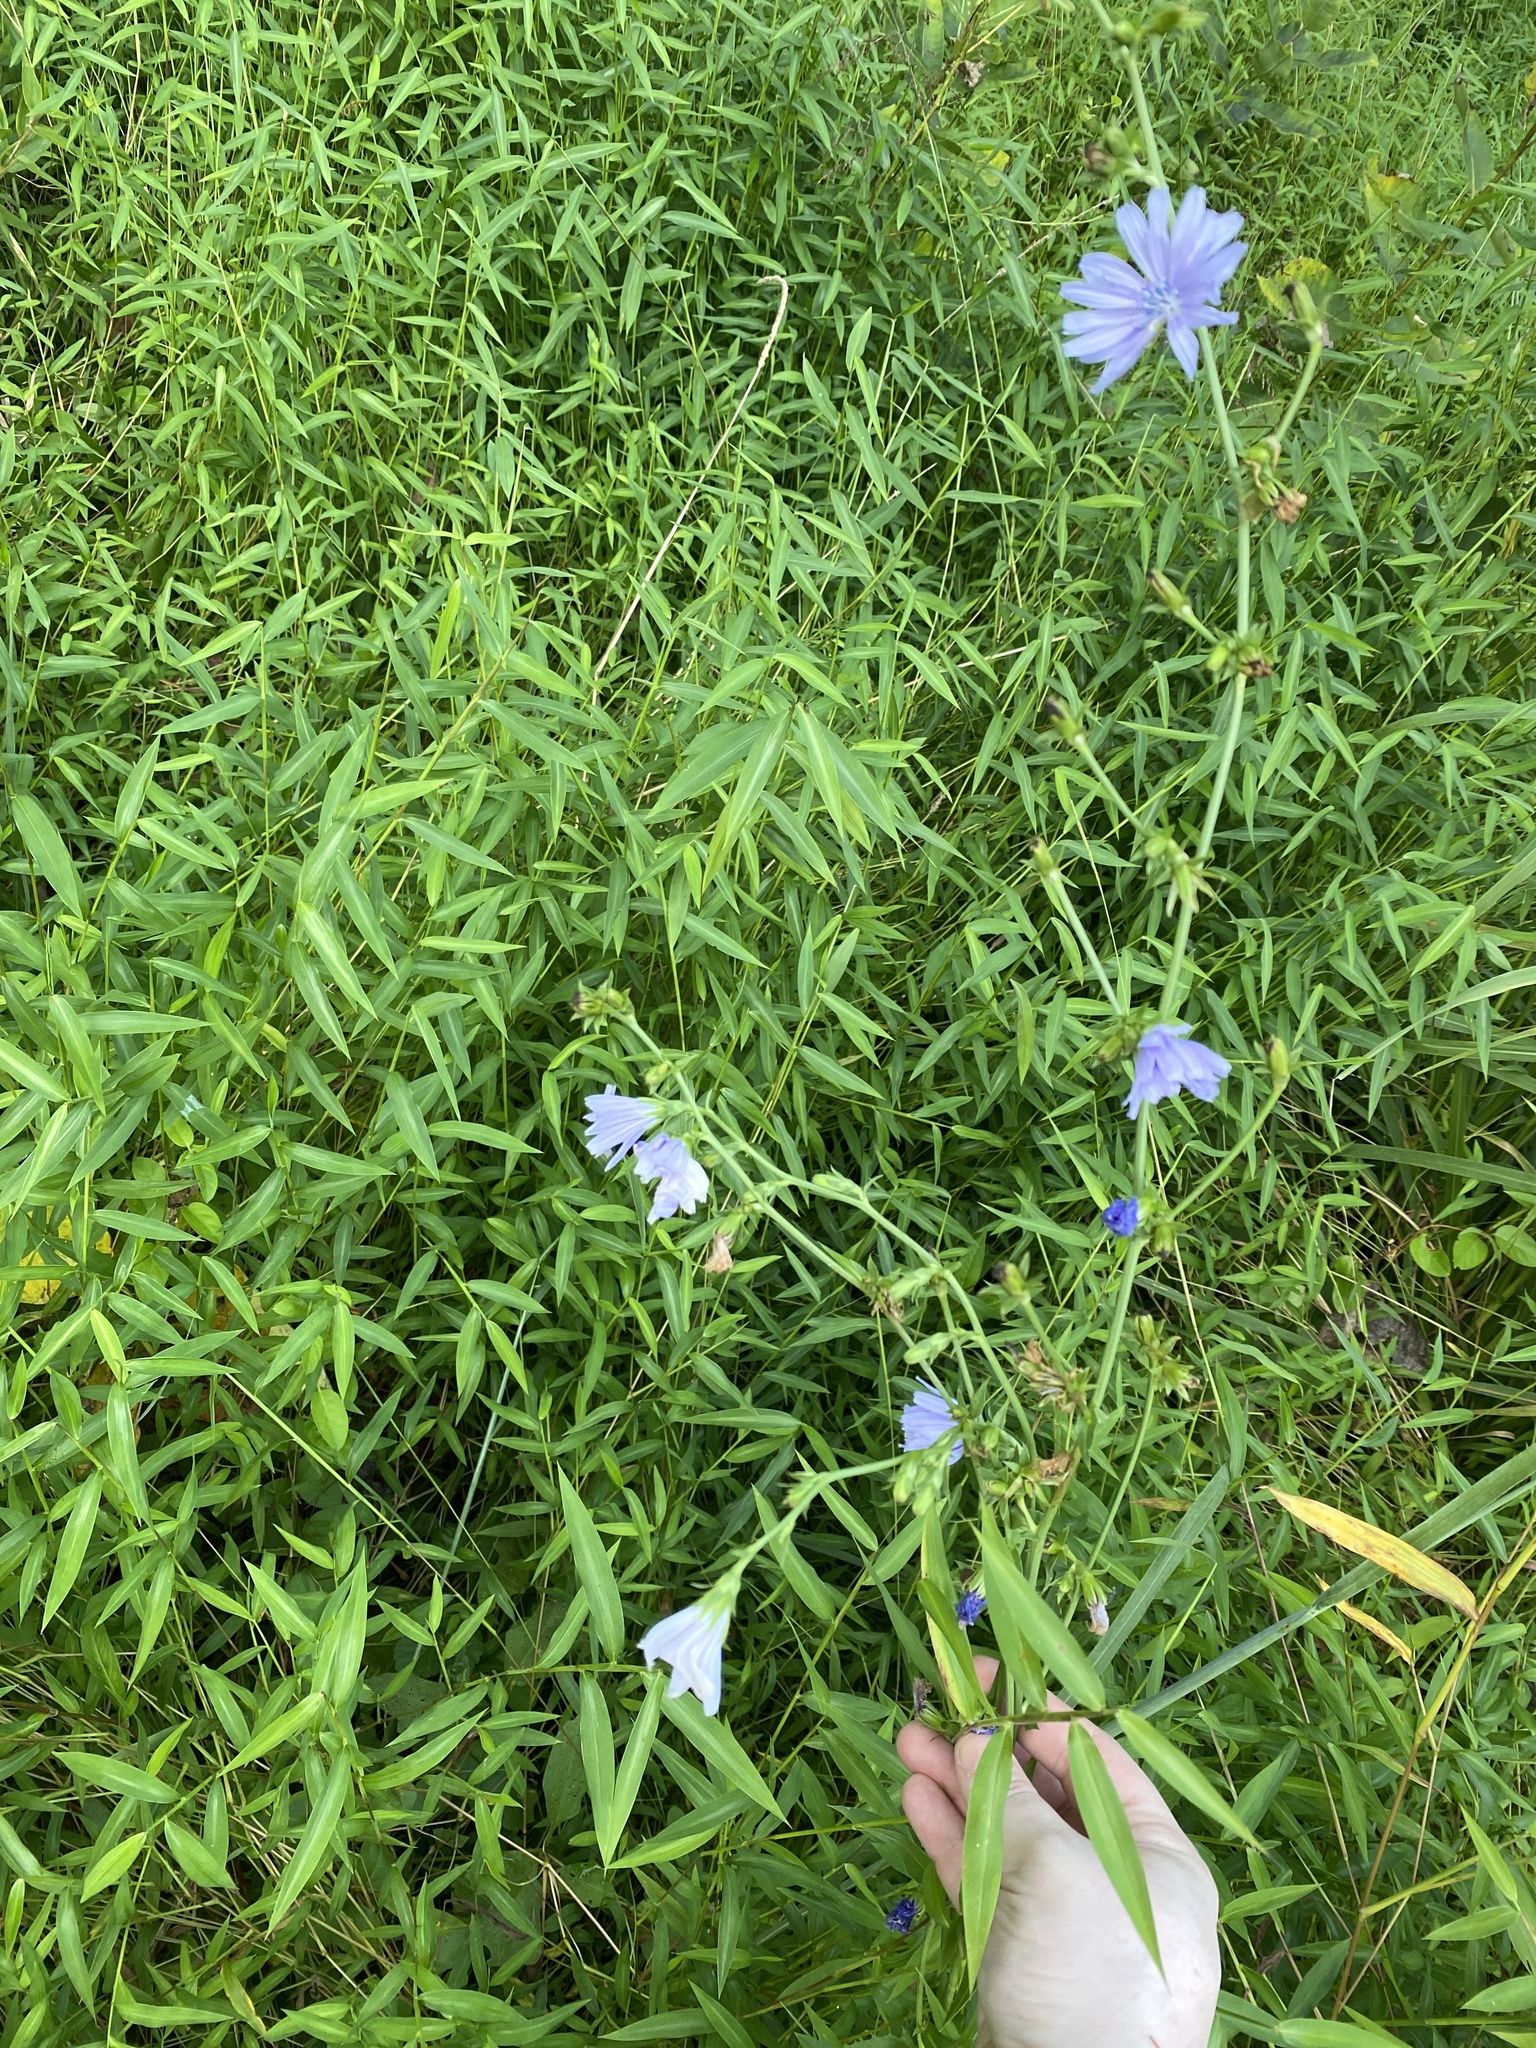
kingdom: Plantae
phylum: Tracheophyta
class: Magnoliopsida
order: Asterales
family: Asteraceae
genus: Cichorium
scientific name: Cichorium intybus
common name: Chicory
